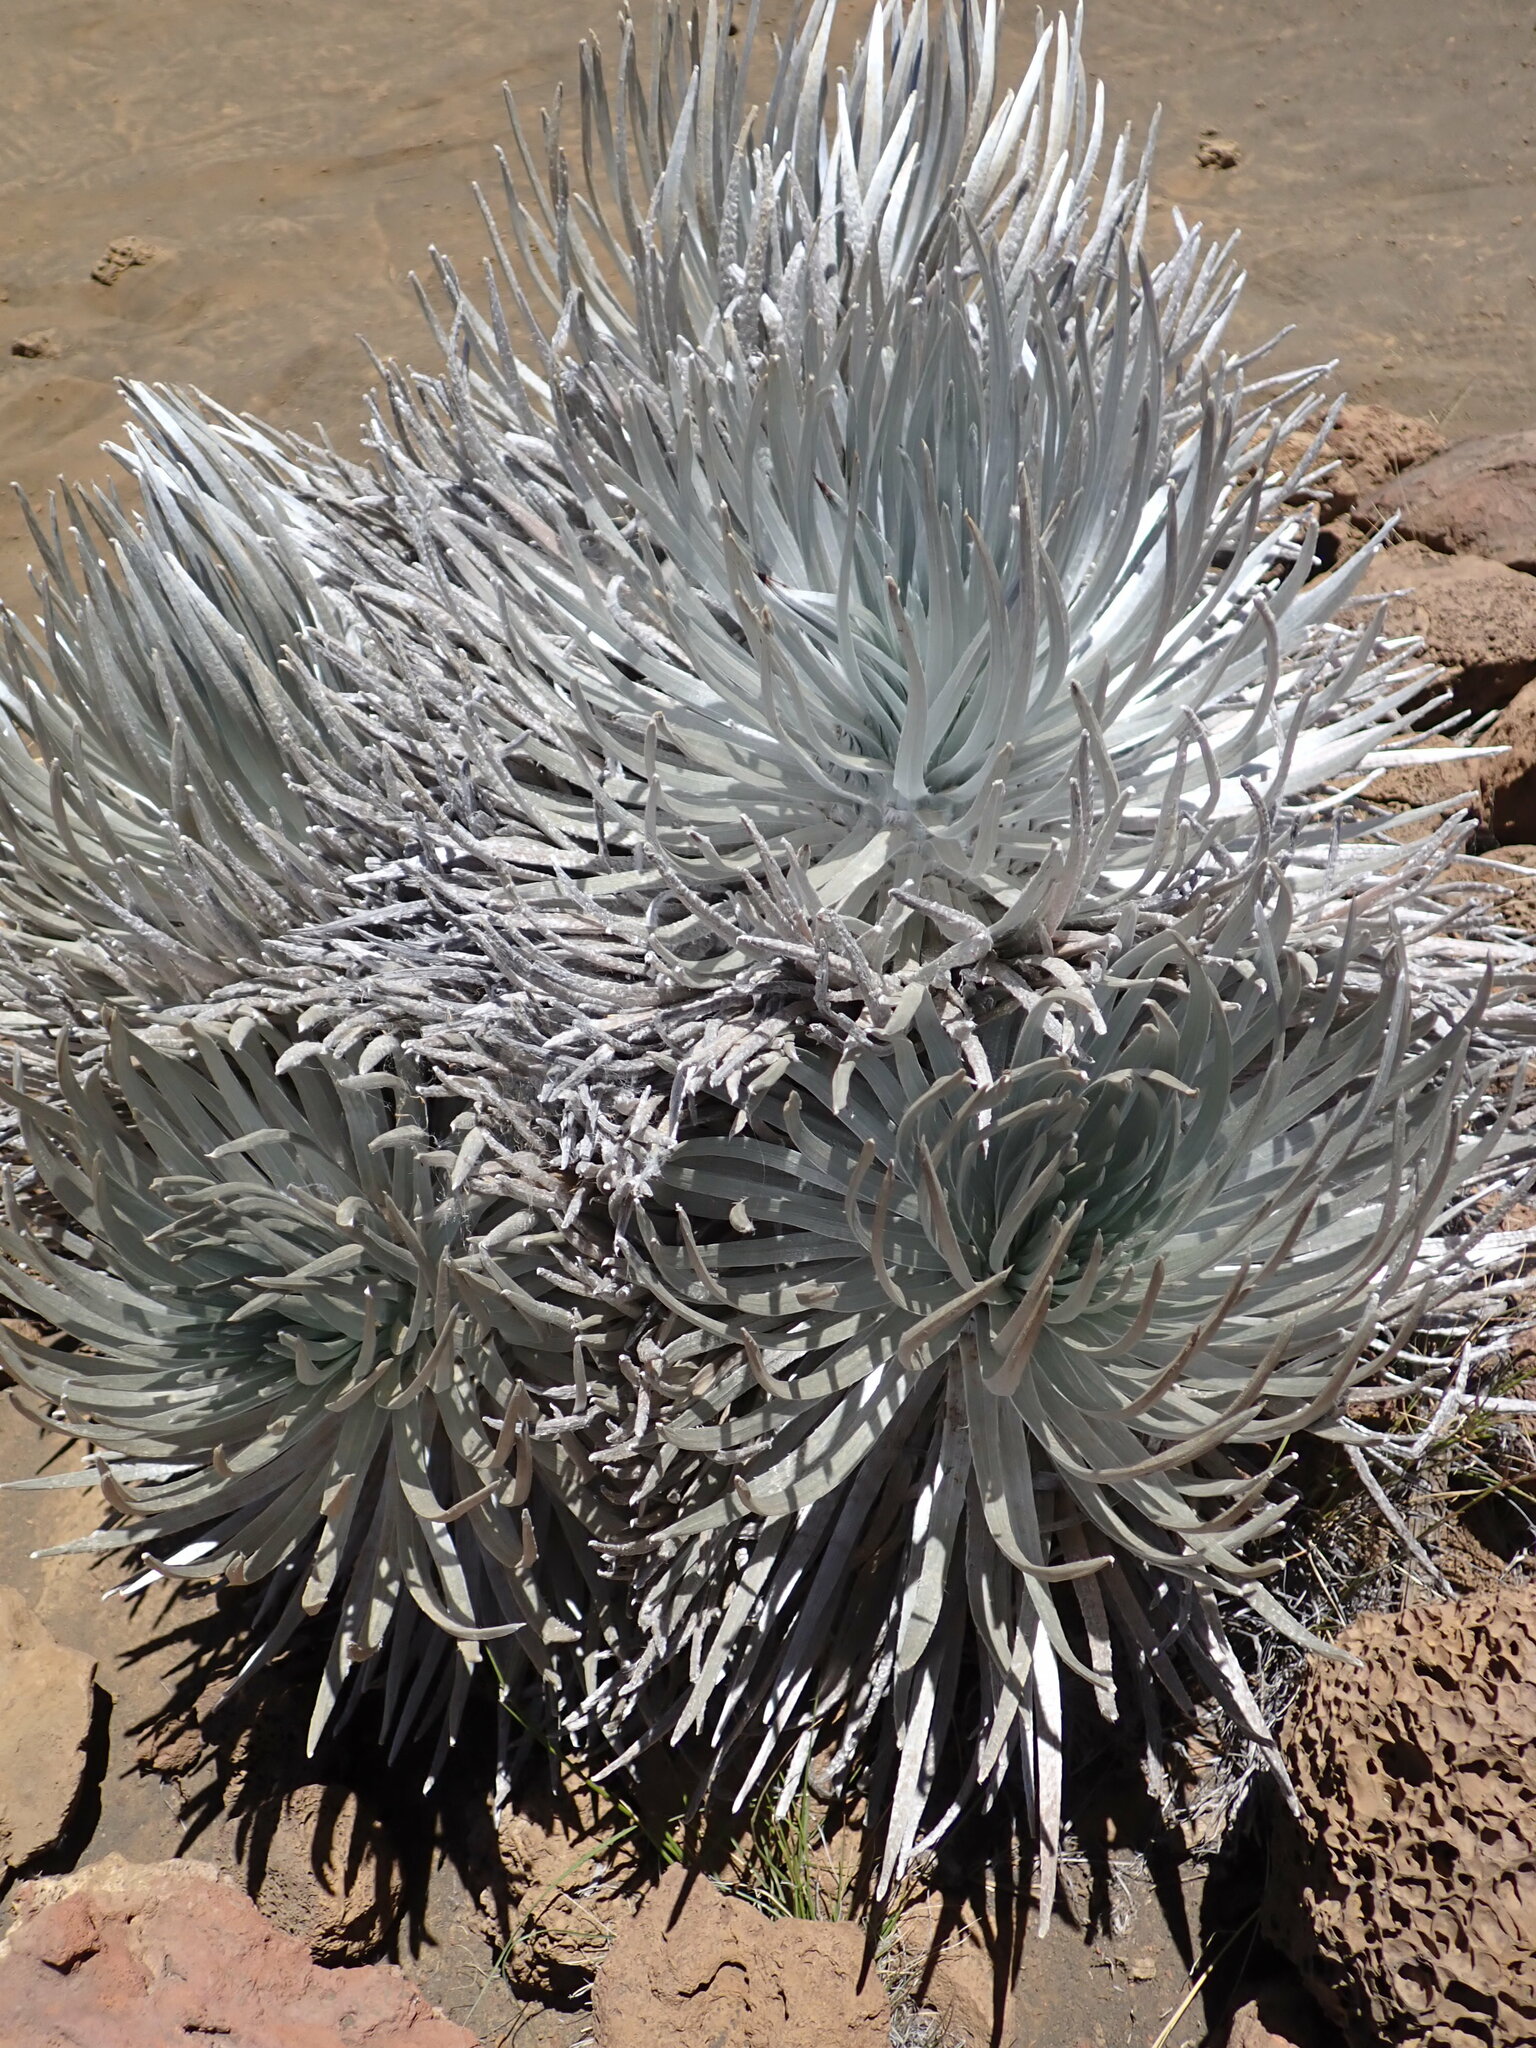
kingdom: Plantae
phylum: Tracheophyta
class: Magnoliopsida
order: Asterales
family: Asteraceae
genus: Argyroxiphium
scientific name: Argyroxiphium sandwicense
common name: Silversword
